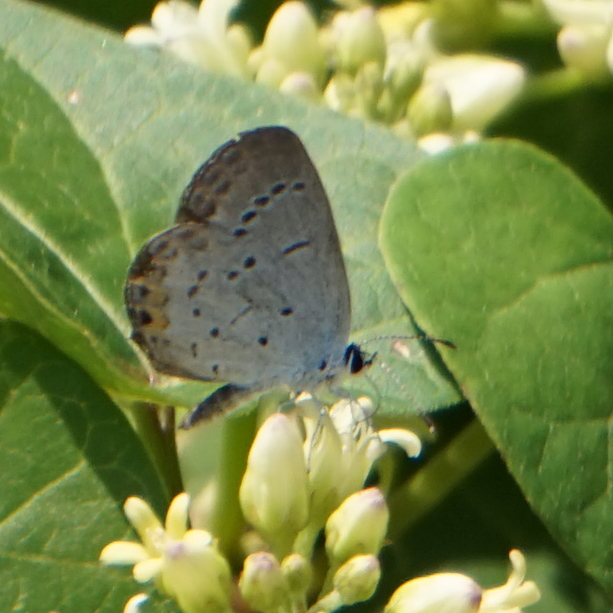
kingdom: Animalia
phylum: Arthropoda
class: Insecta
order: Lepidoptera
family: Lycaenidae
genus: Elkalyce
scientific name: Elkalyce comyntas
